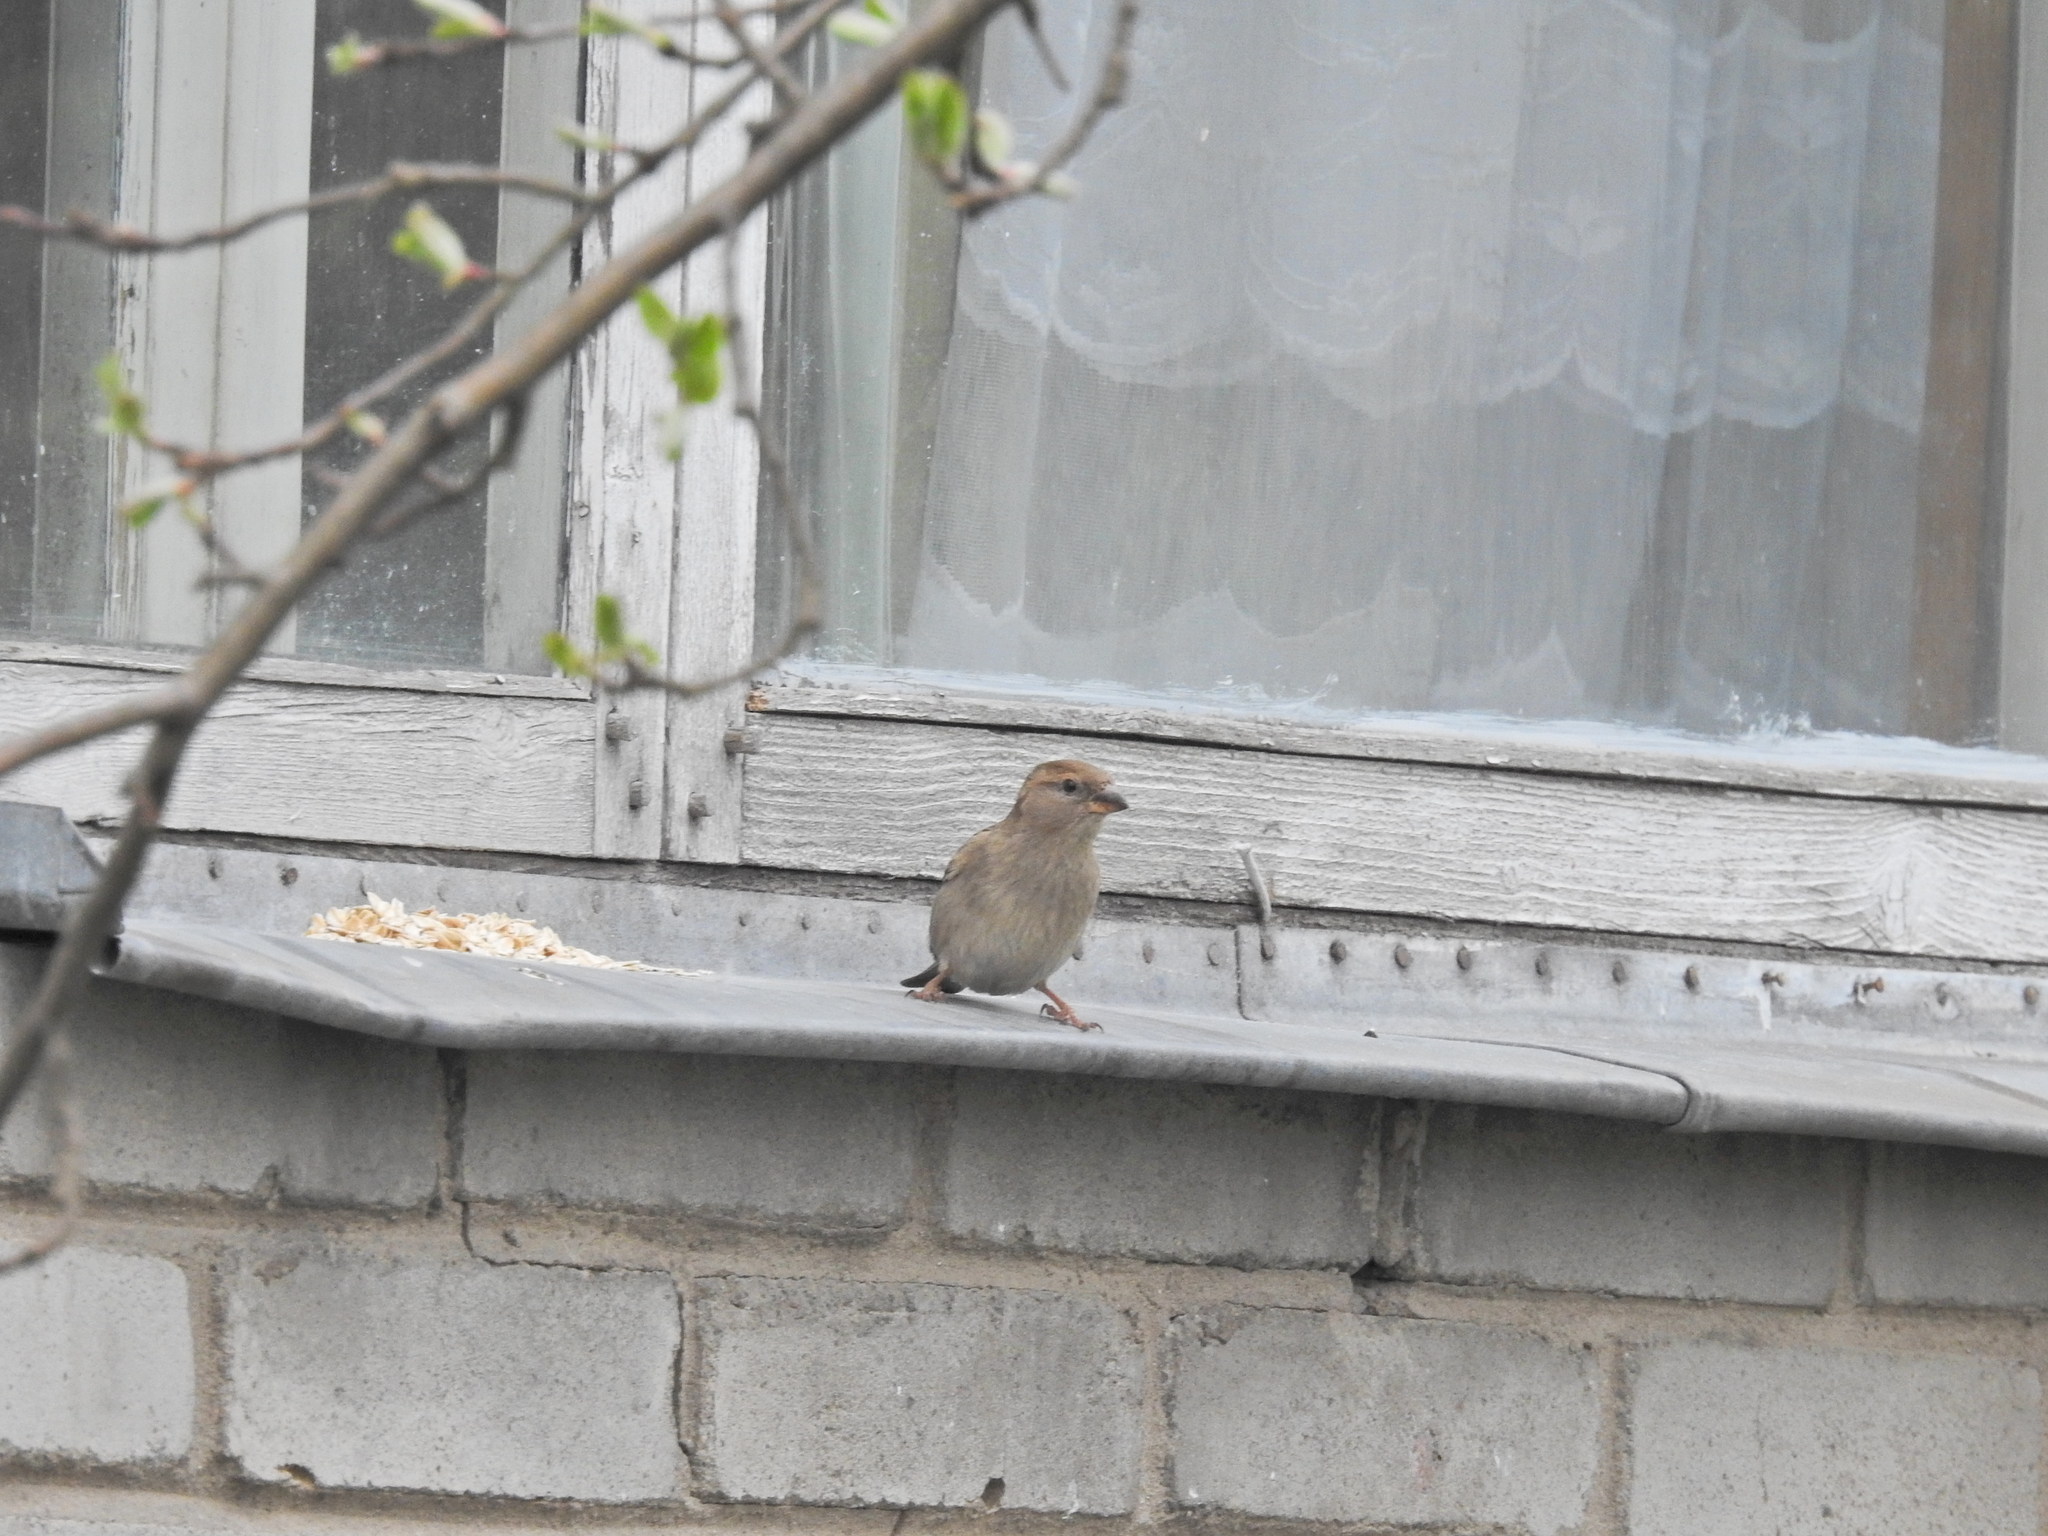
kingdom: Animalia
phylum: Chordata
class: Aves
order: Passeriformes
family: Passeridae
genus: Passer
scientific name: Passer domesticus
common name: House sparrow
